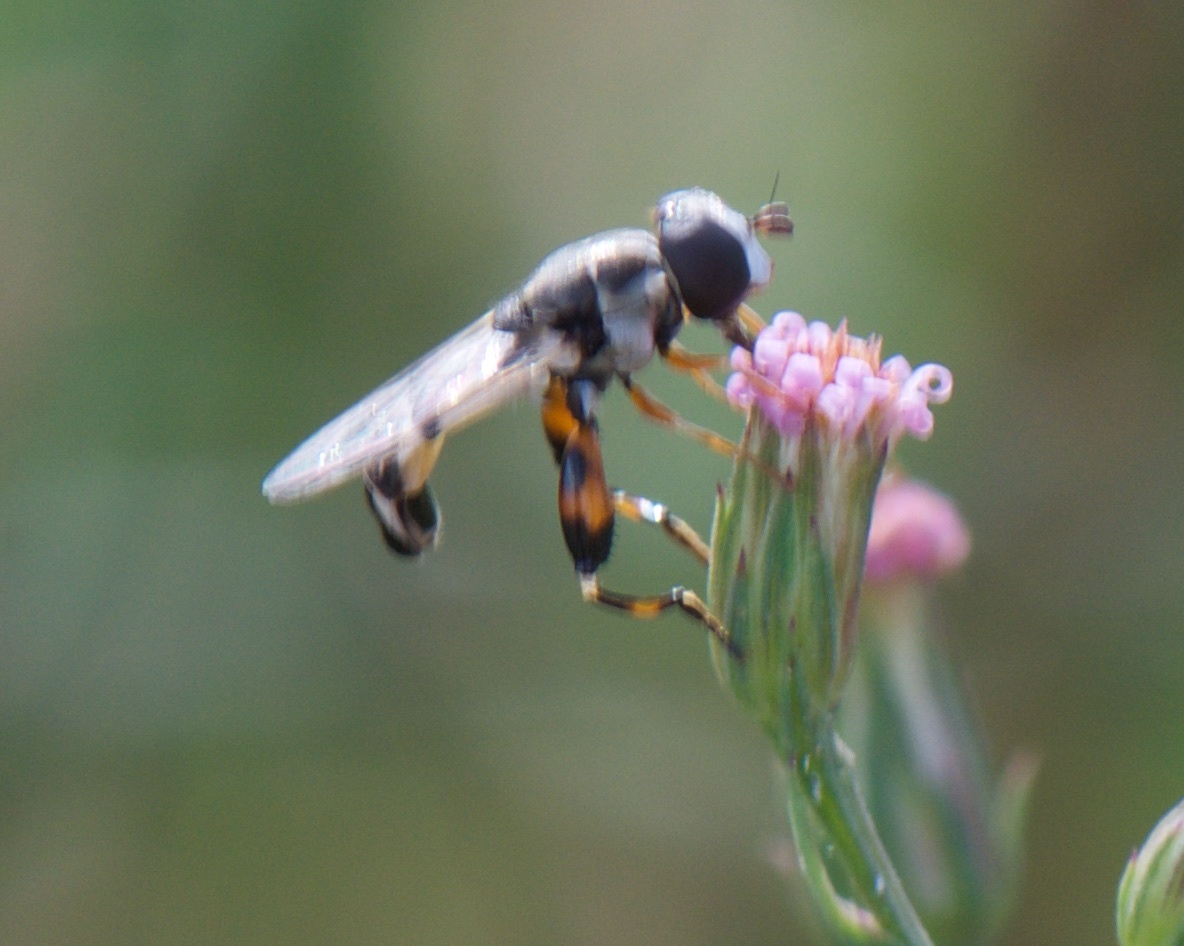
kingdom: Animalia
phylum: Arthropoda
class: Insecta
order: Diptera
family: Syrphidae
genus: Syritta
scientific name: Syritta flaviventris
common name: Syrphid fly
